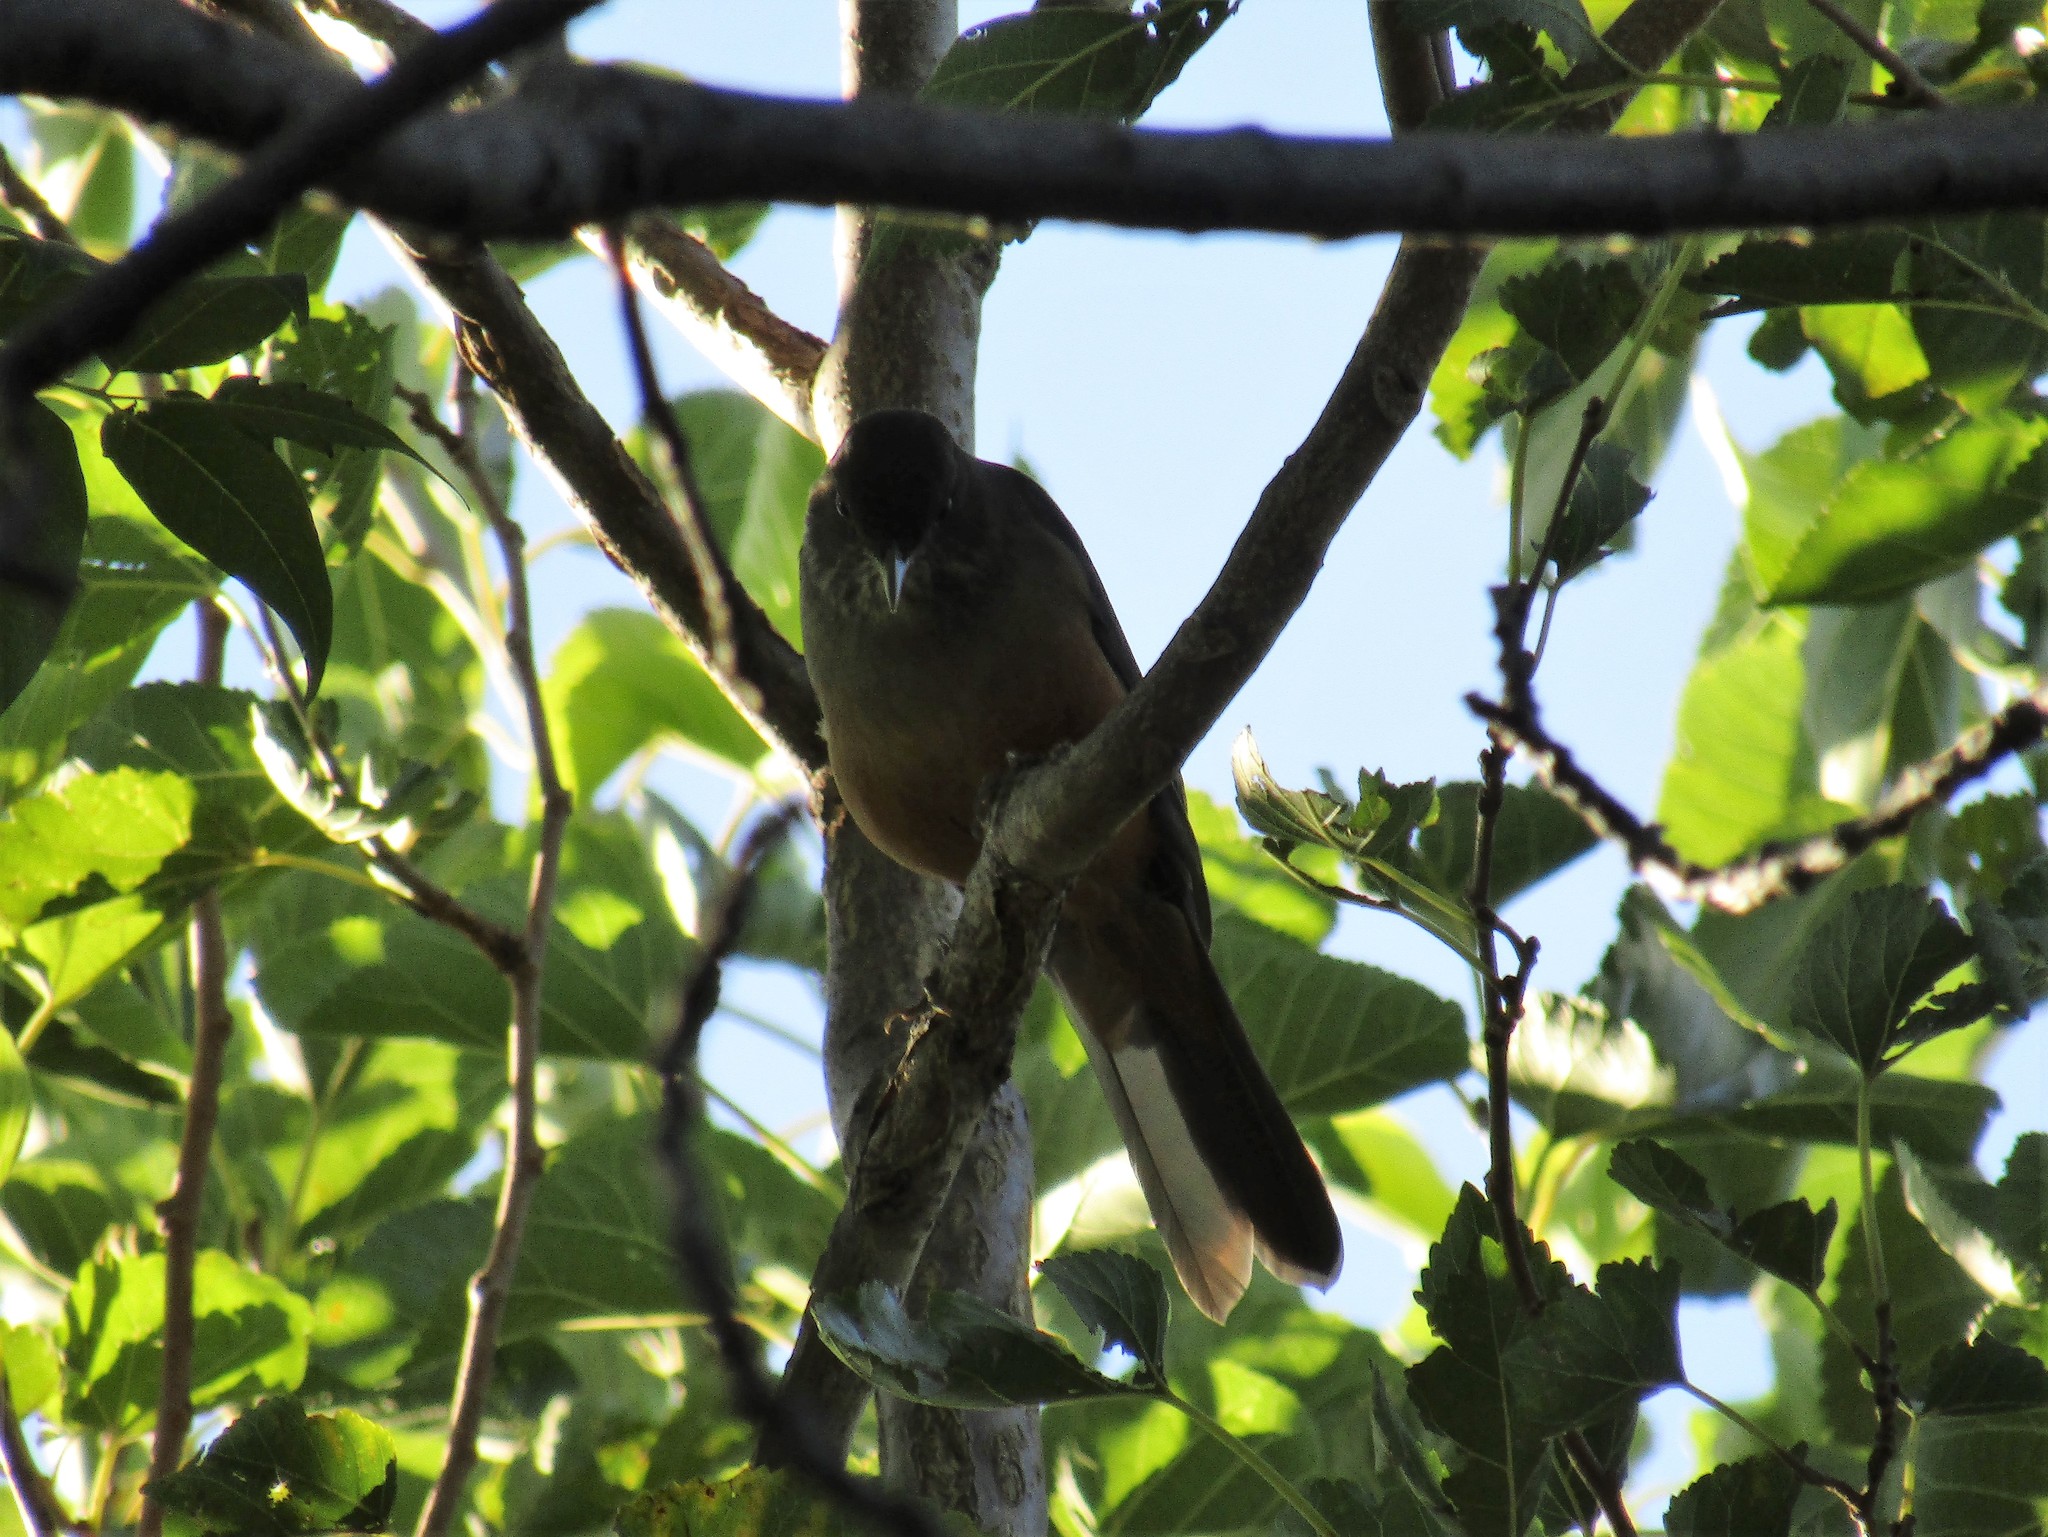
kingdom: Animalia
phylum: Chordata
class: Aves
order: Passeriformes
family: Turdidae
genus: Turdus
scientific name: Turdus rufiventris
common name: Rufous-bellied thrush
